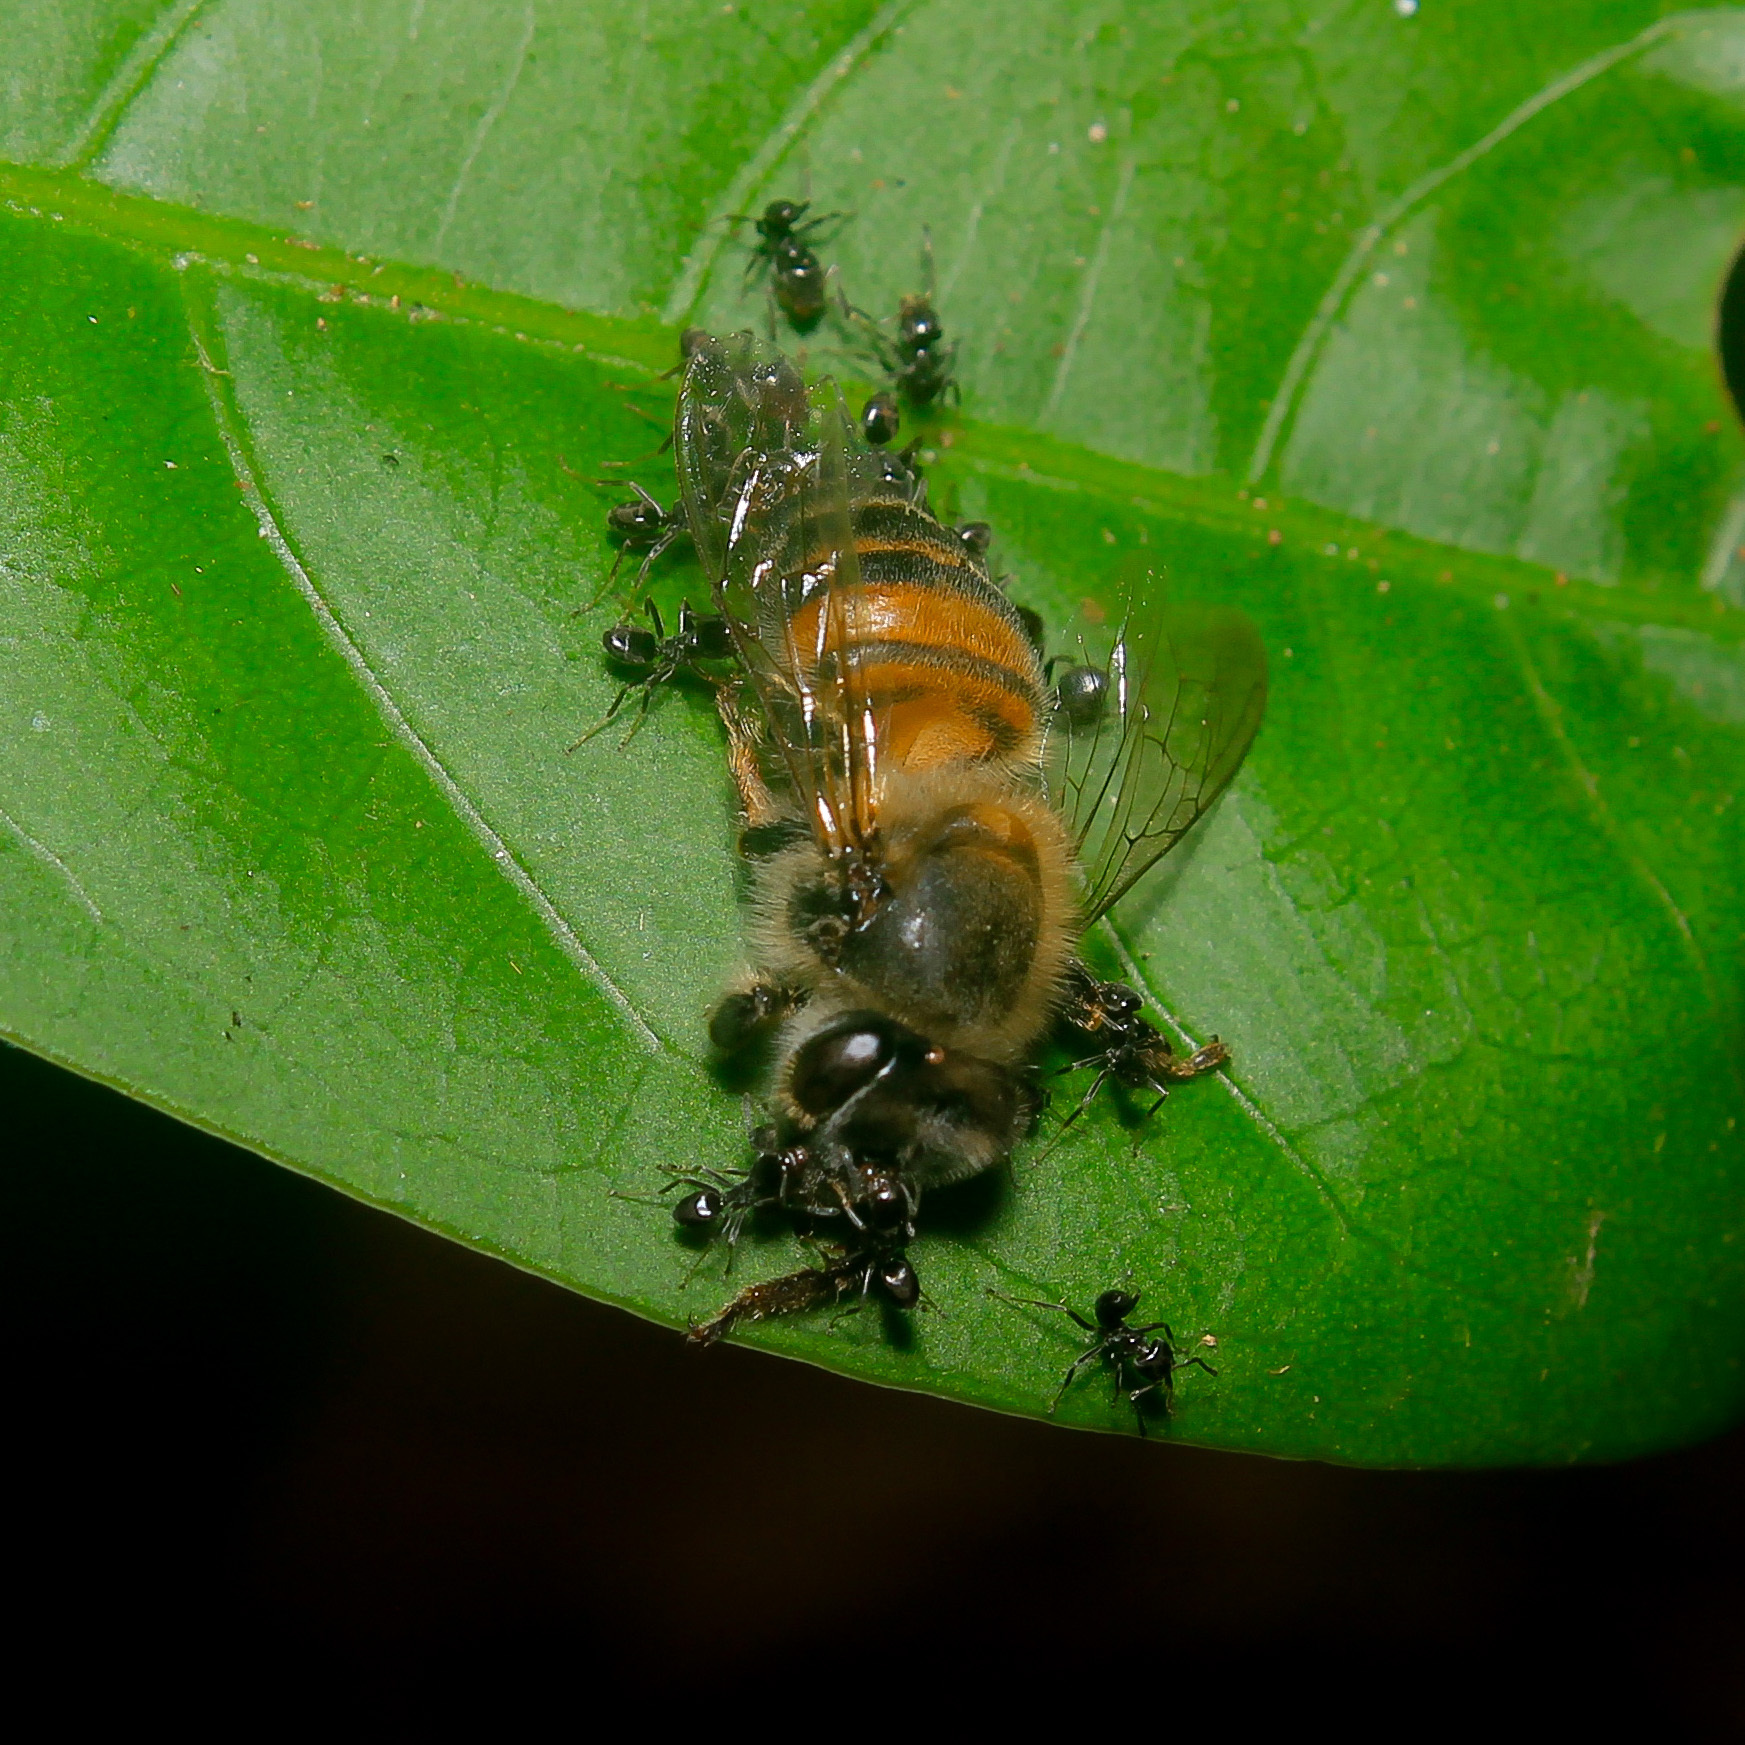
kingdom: Animalia
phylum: Arthropoda
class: Insecta
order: Hymenoptera
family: Apidae
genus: Apis
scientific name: Apis mellifera
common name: Honey bee
